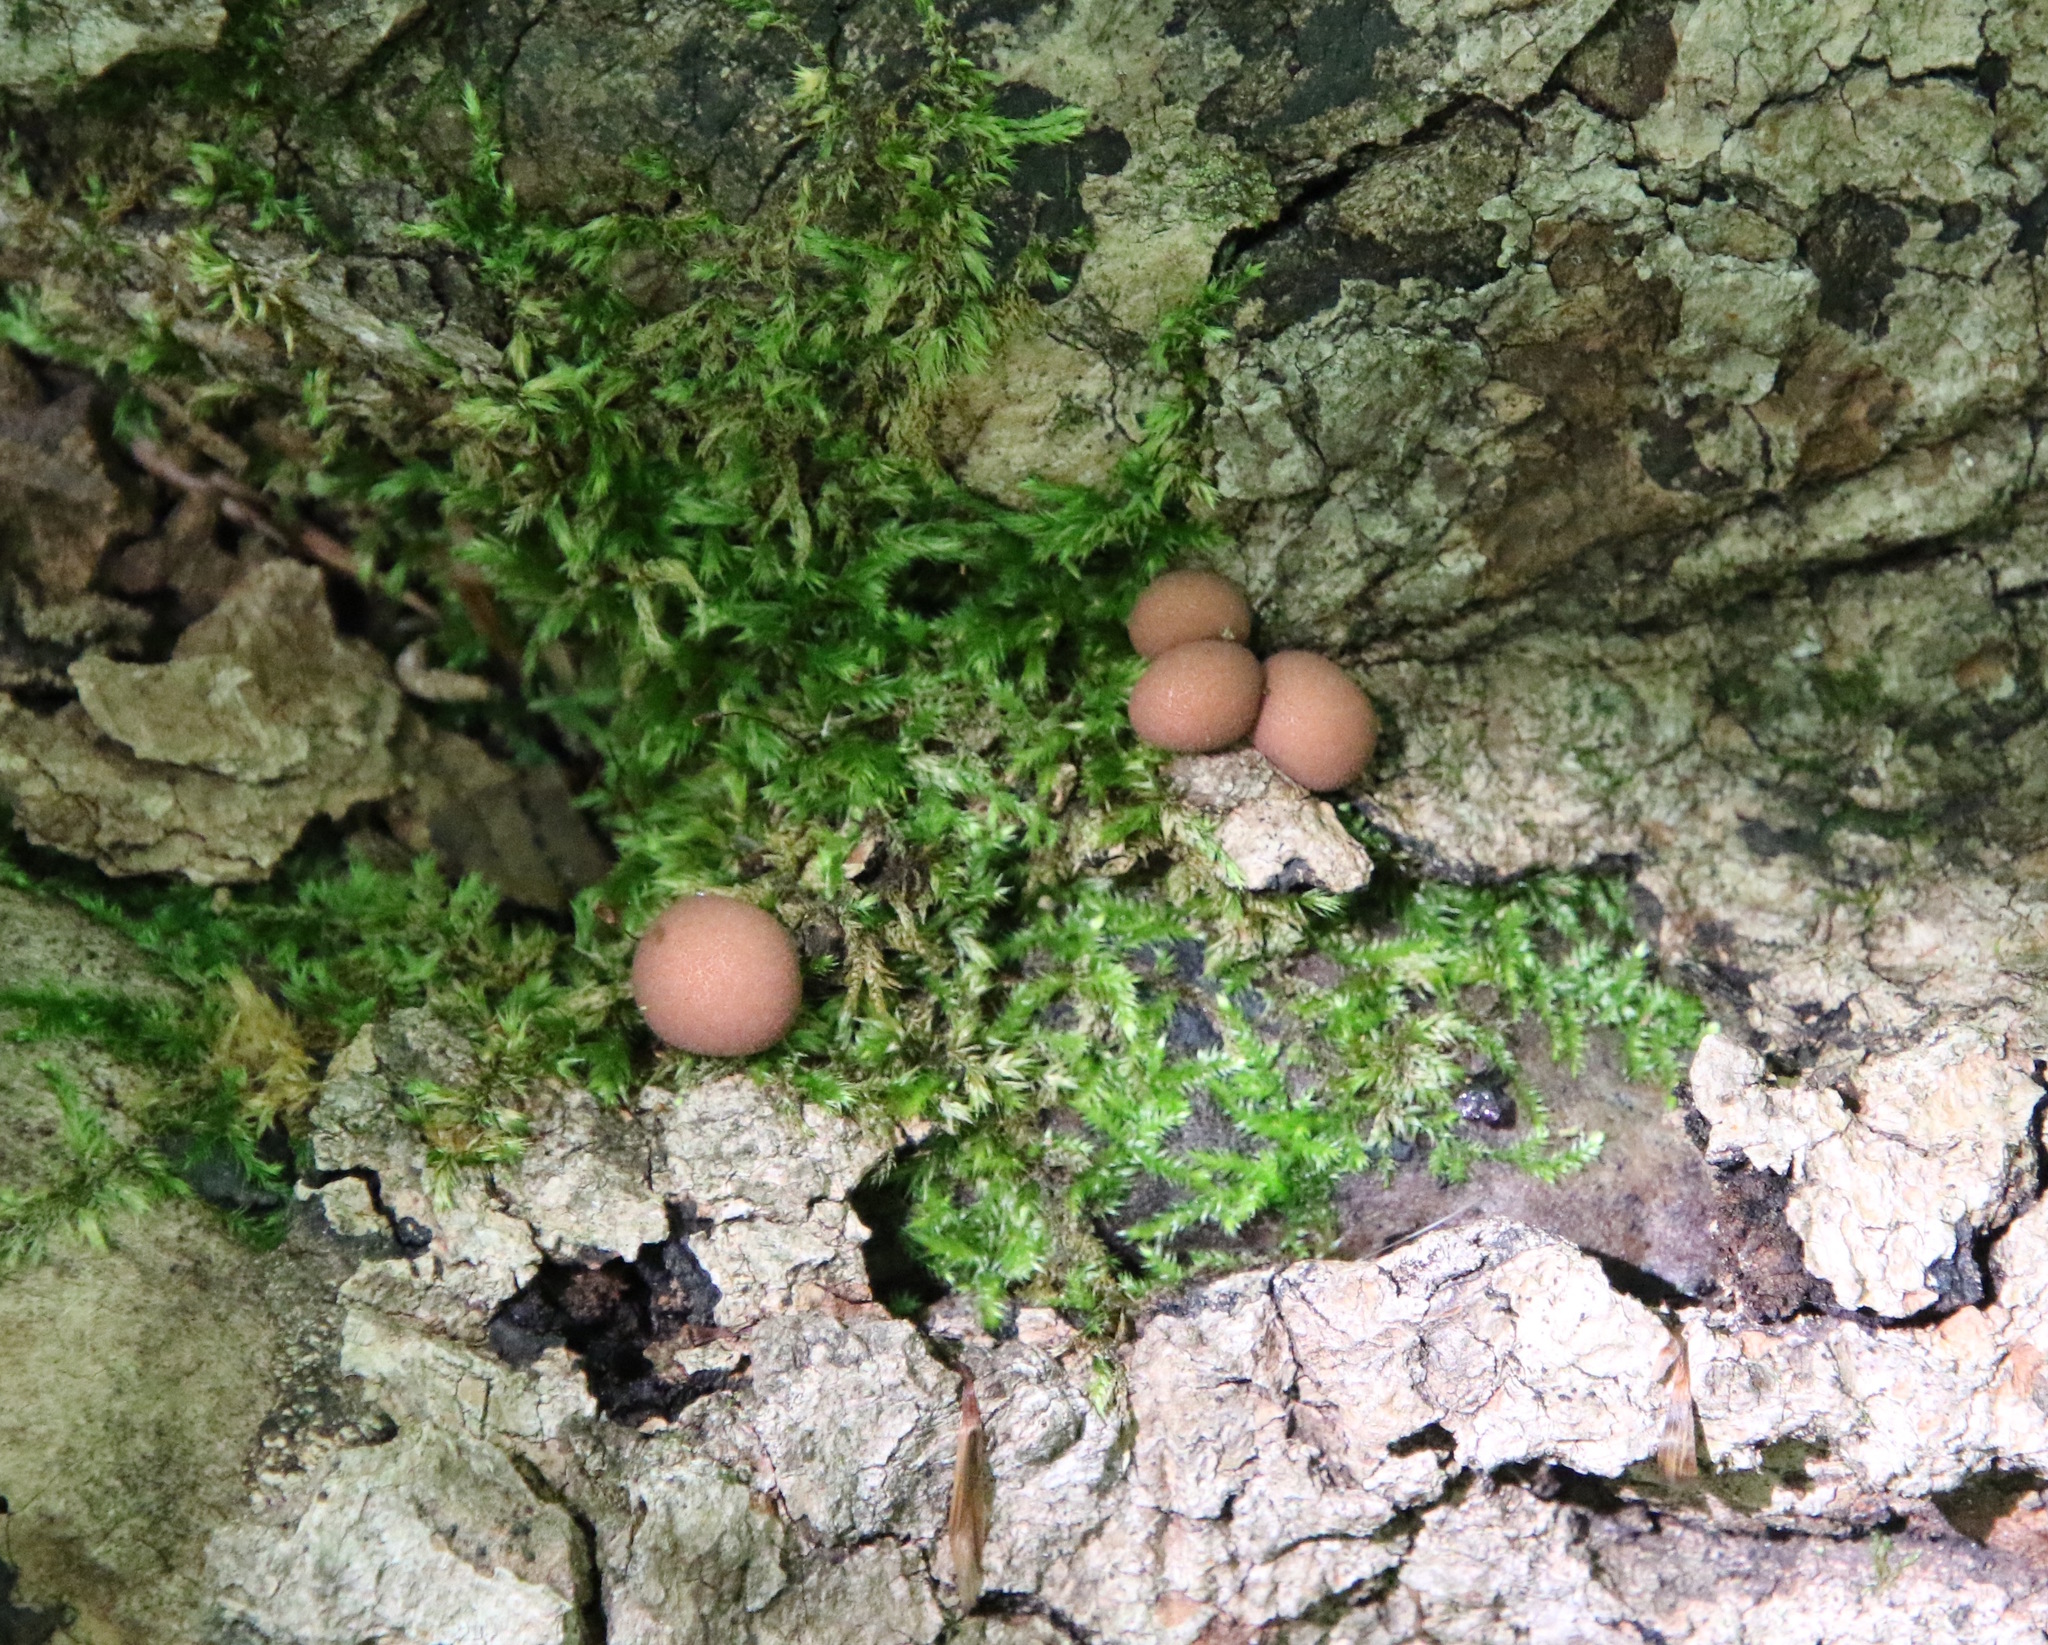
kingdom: Protozoa
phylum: Mycetozoa
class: Myxomycetes
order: Cribrariales
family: Tubiferaceae
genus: Lycogala
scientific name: Lycogala epidendrum
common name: Wolf's milk
